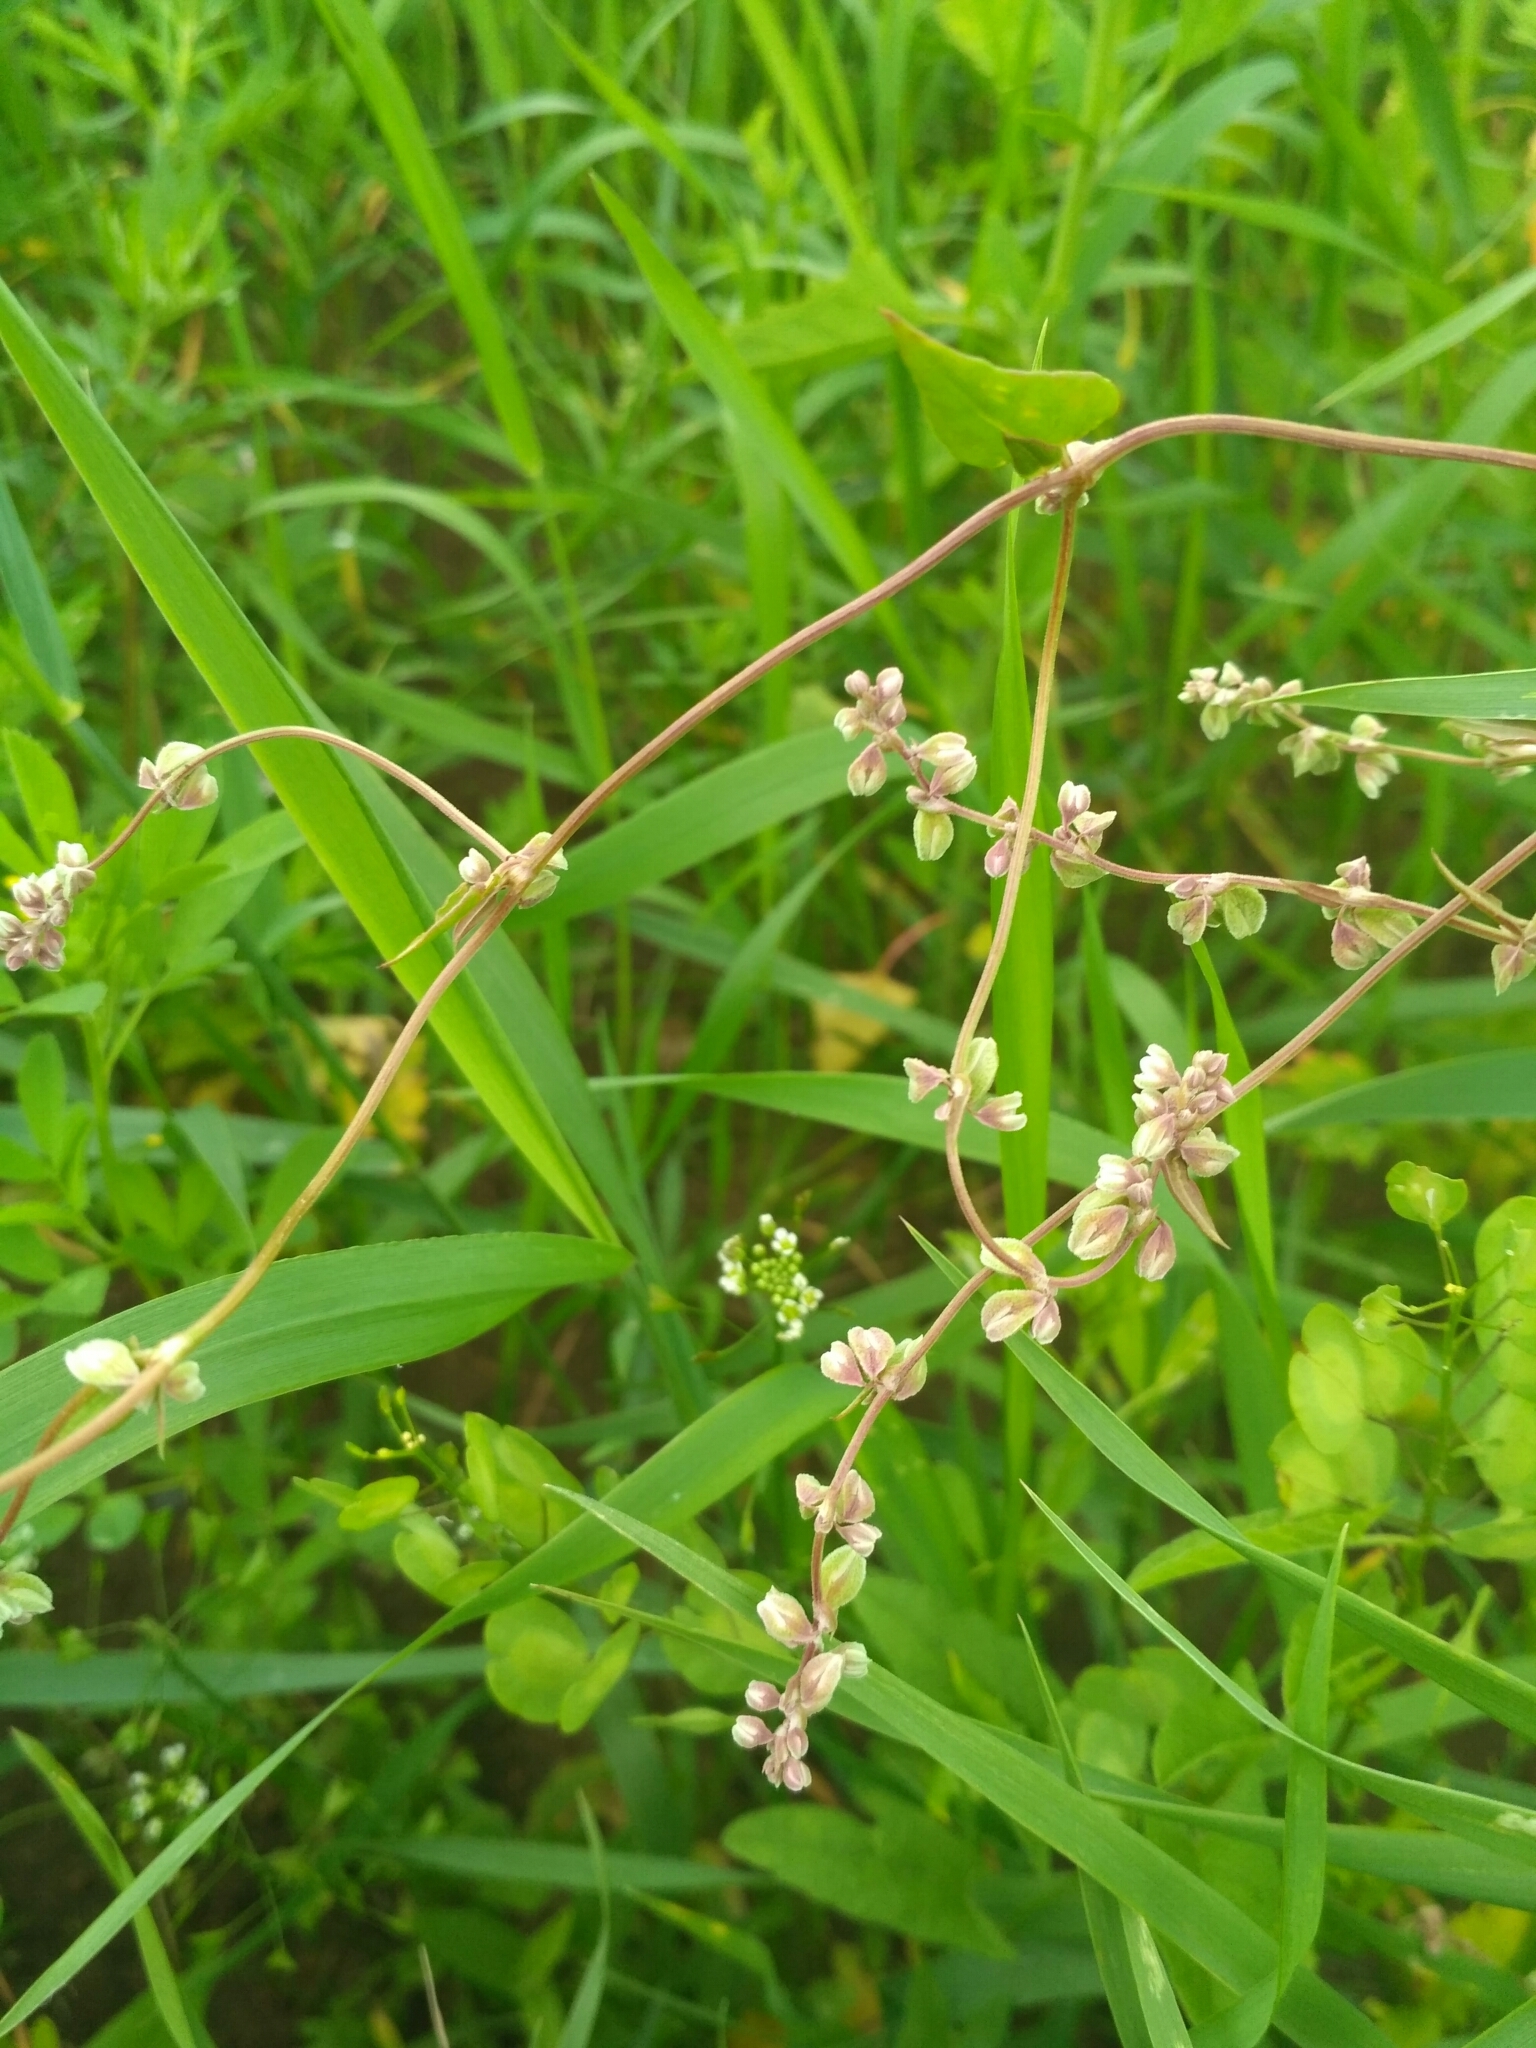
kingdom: Plantae
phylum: Tracheophyta
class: Magnoliopsida
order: Caryophyllales
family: Polygonaceae
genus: Fallopia
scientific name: Fallopia convolvulus
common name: Black bindweed
